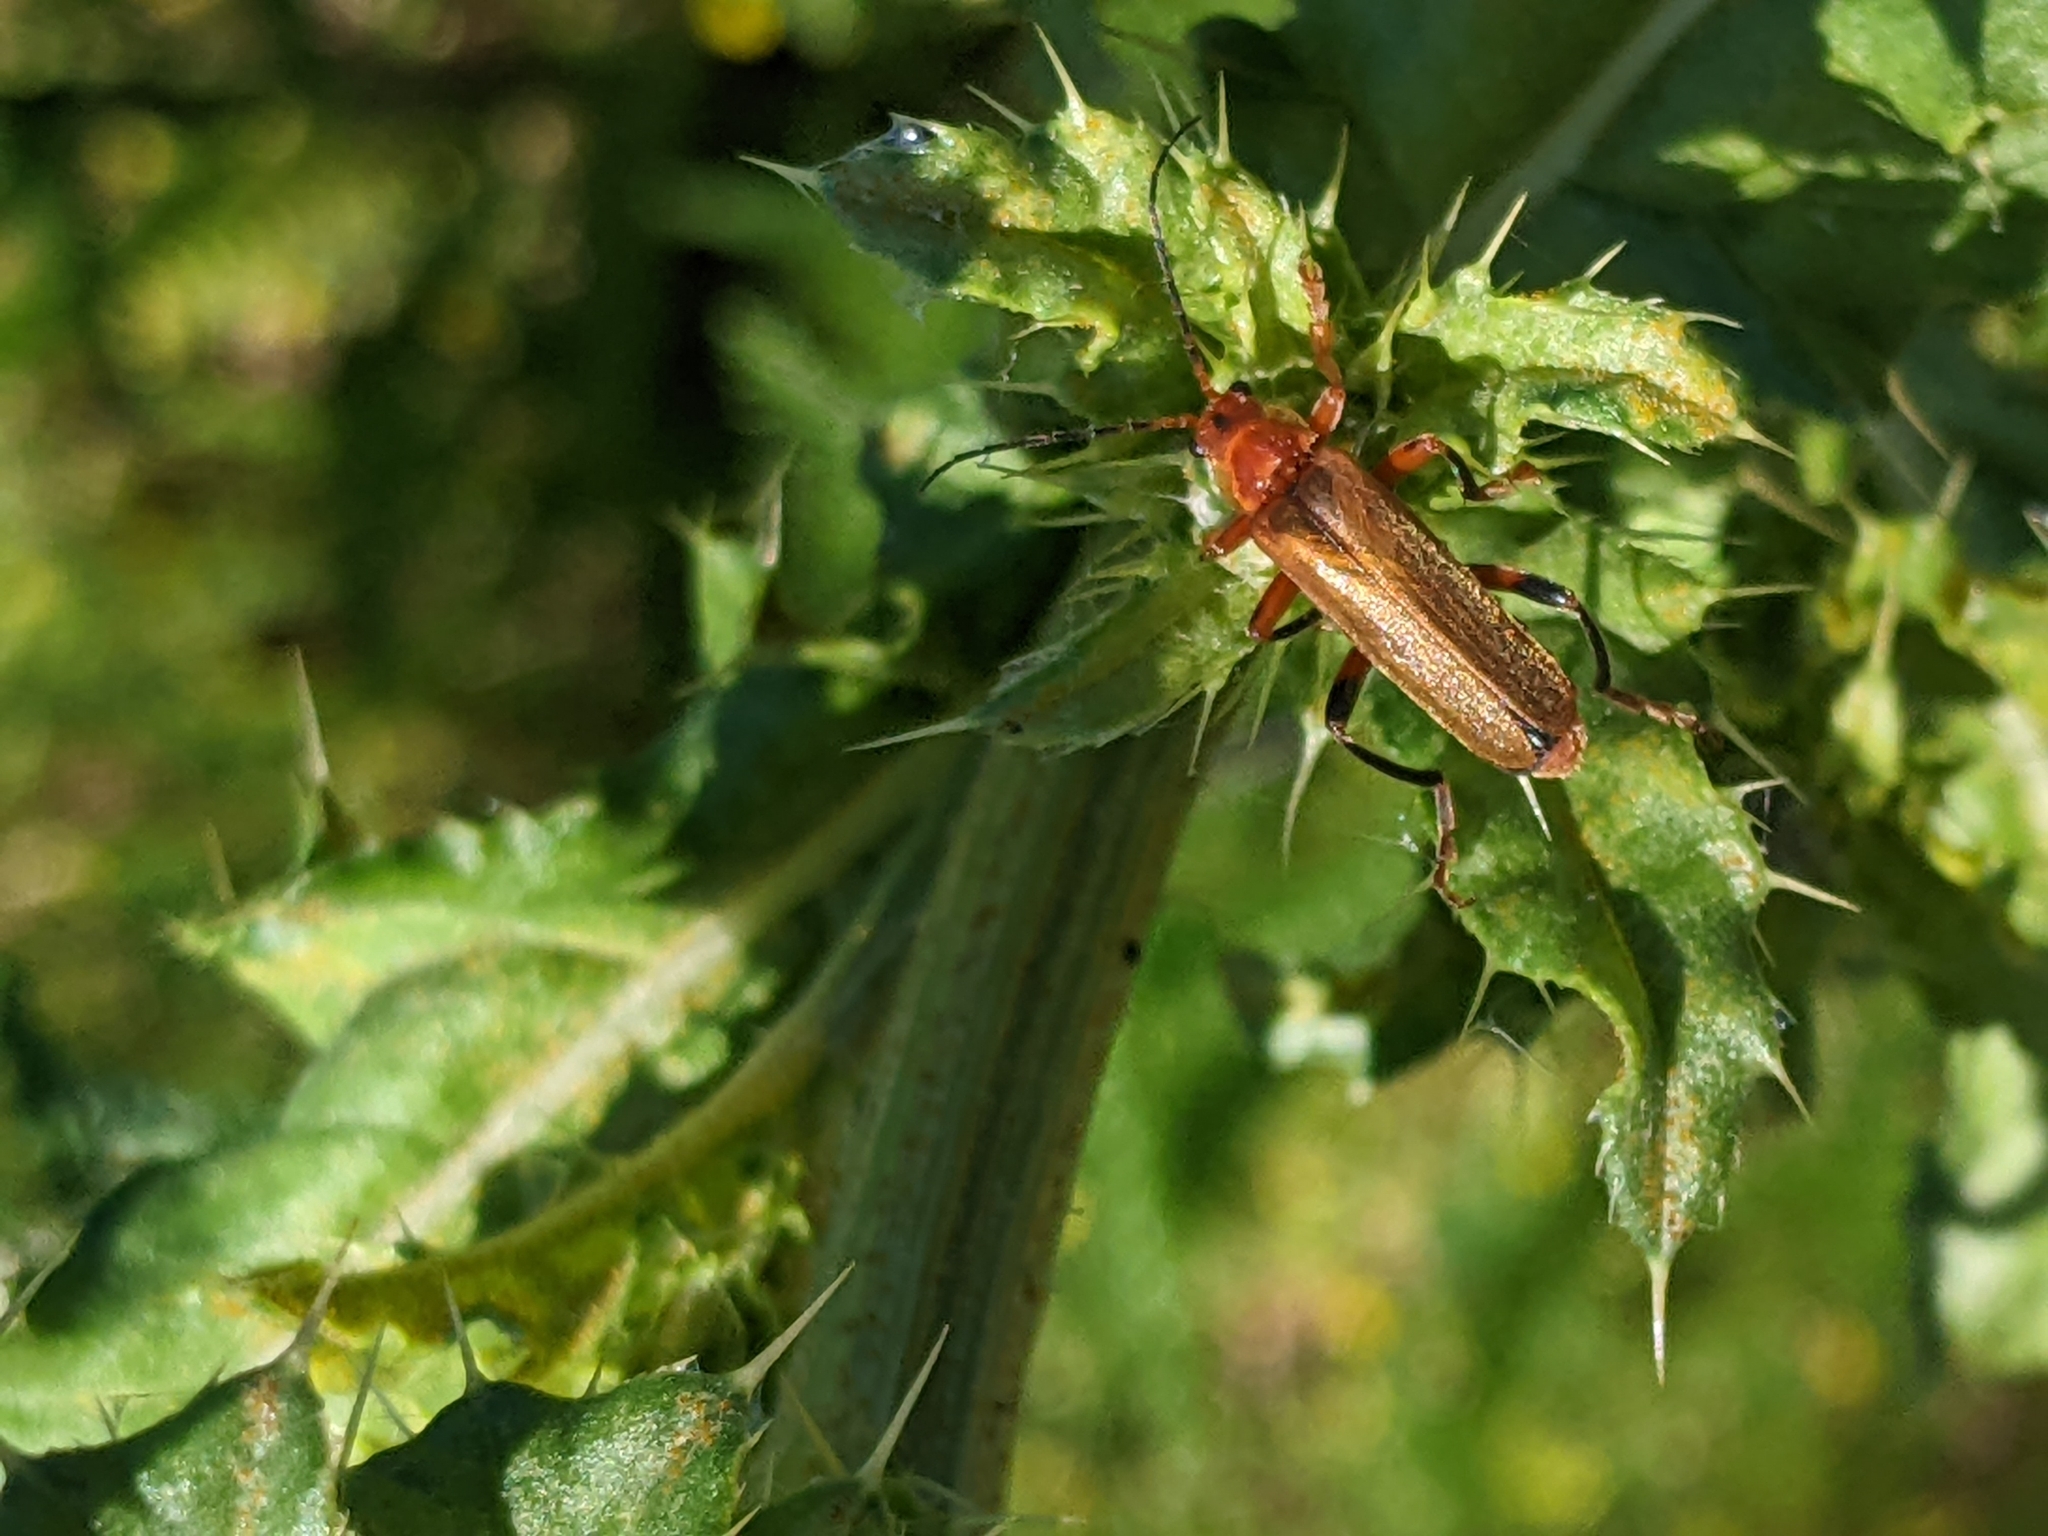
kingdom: Animalia
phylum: Arthropoda
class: Insecta
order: Coleoptera
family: Cantharidae
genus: Cantharis
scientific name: Cantharis livida
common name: Livid soldier beetle
